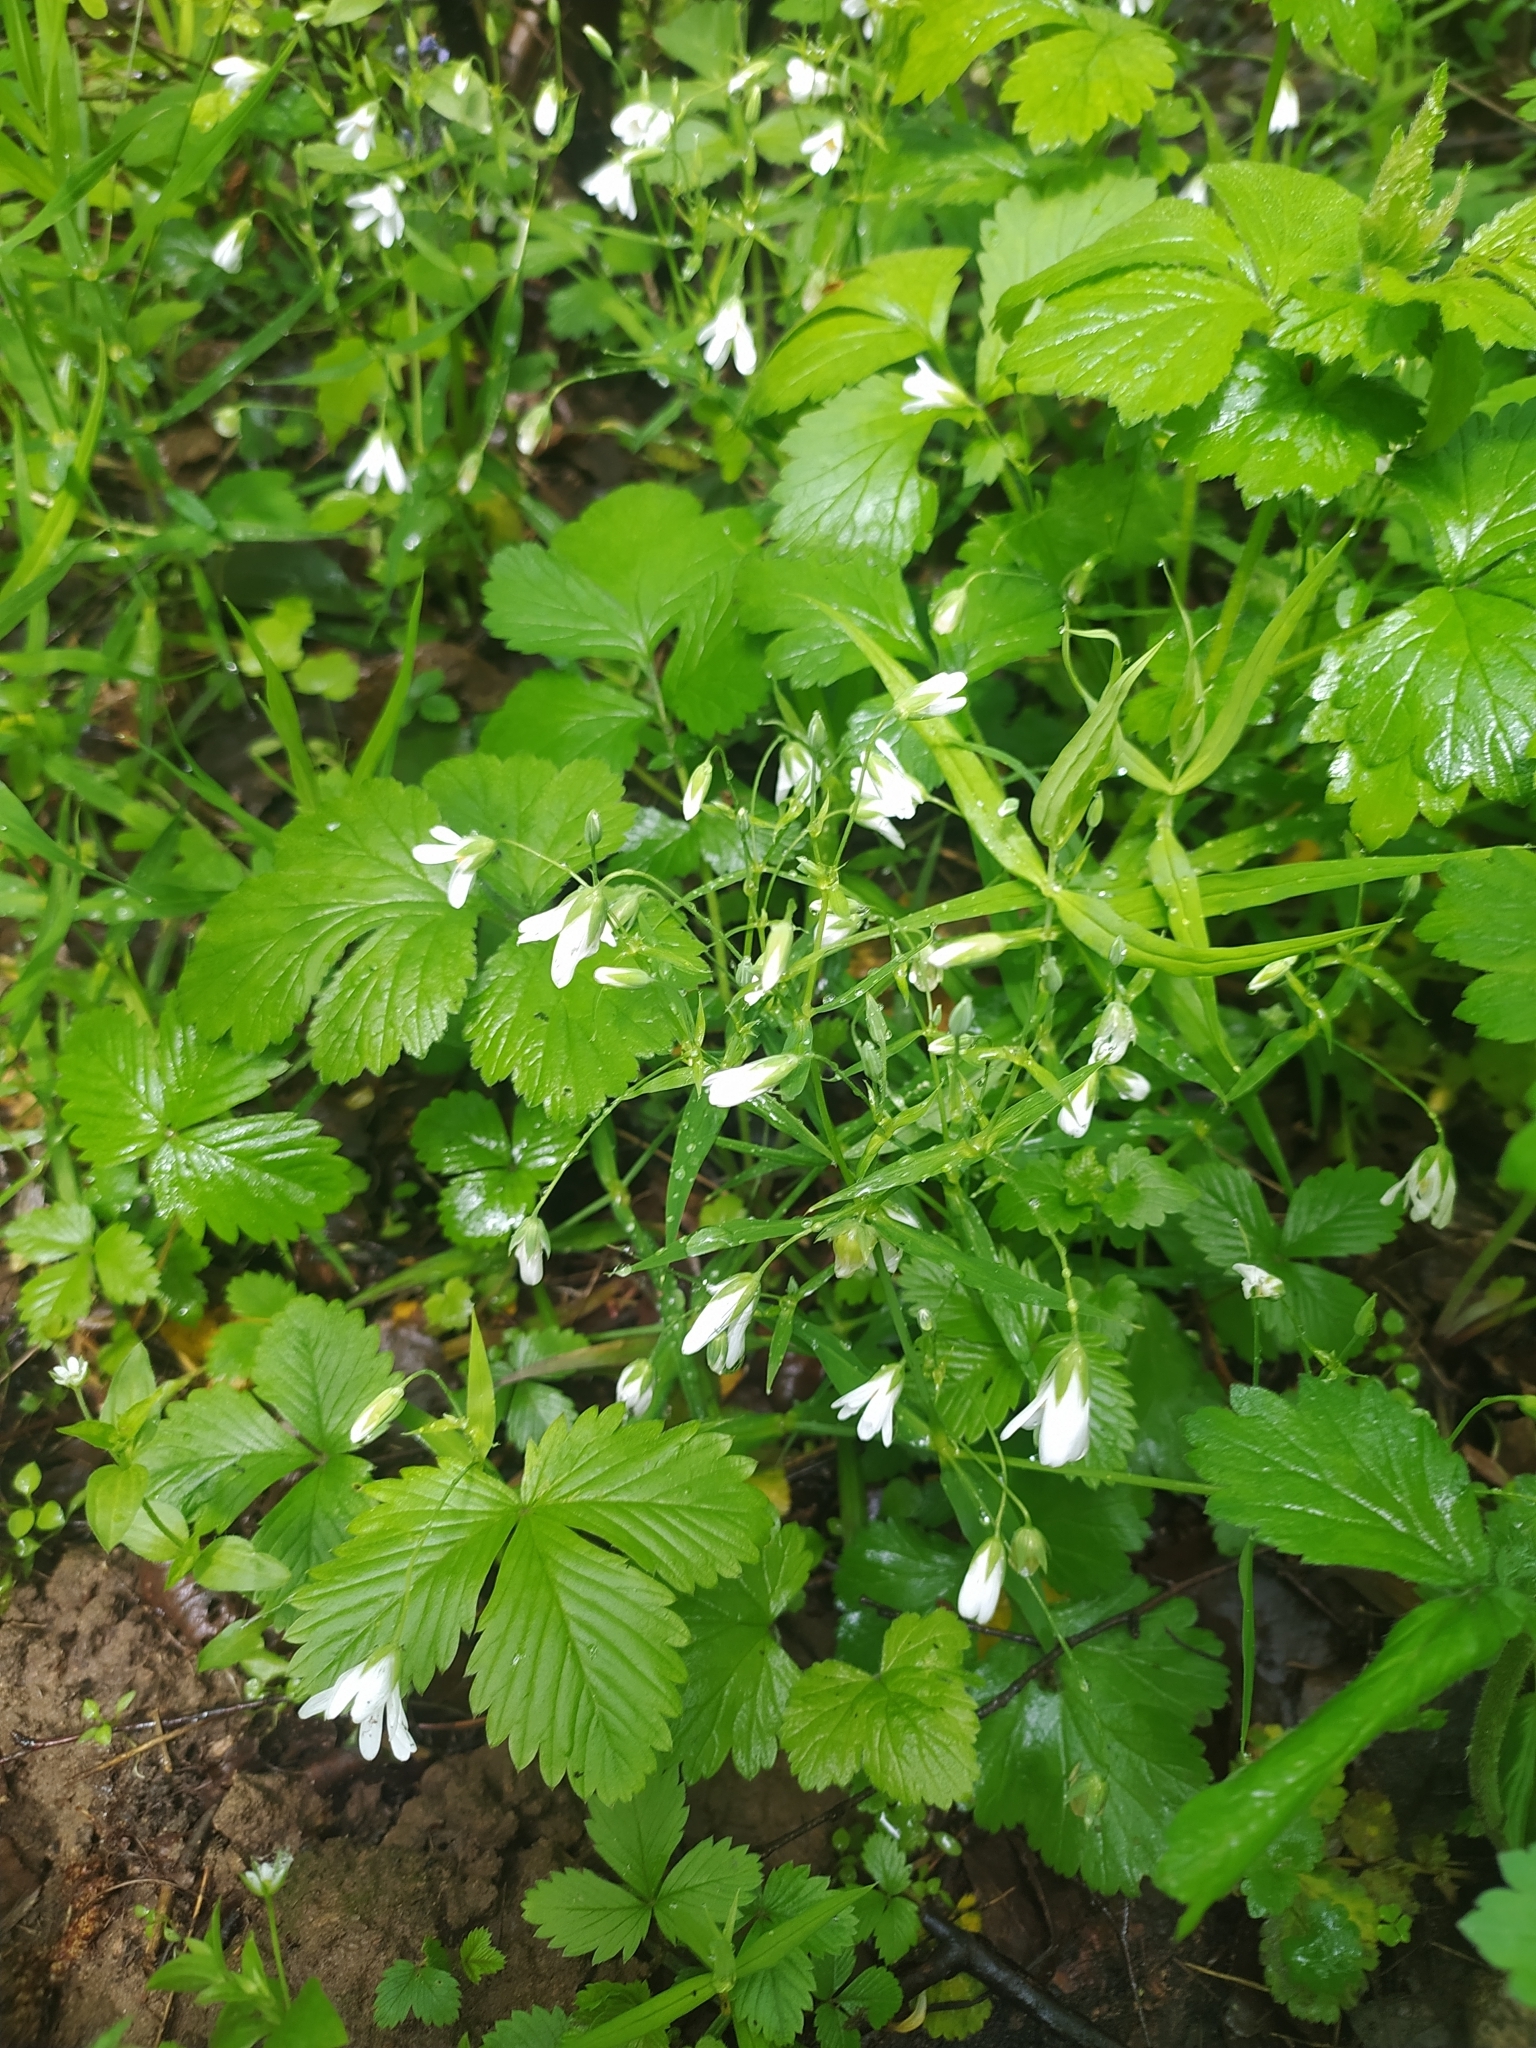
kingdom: Plantae
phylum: Tracheophyta
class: Magnoliopsida
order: Caryophyllales
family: Caryophyllaceae
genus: Rabelera
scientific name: Rabelera holostea
